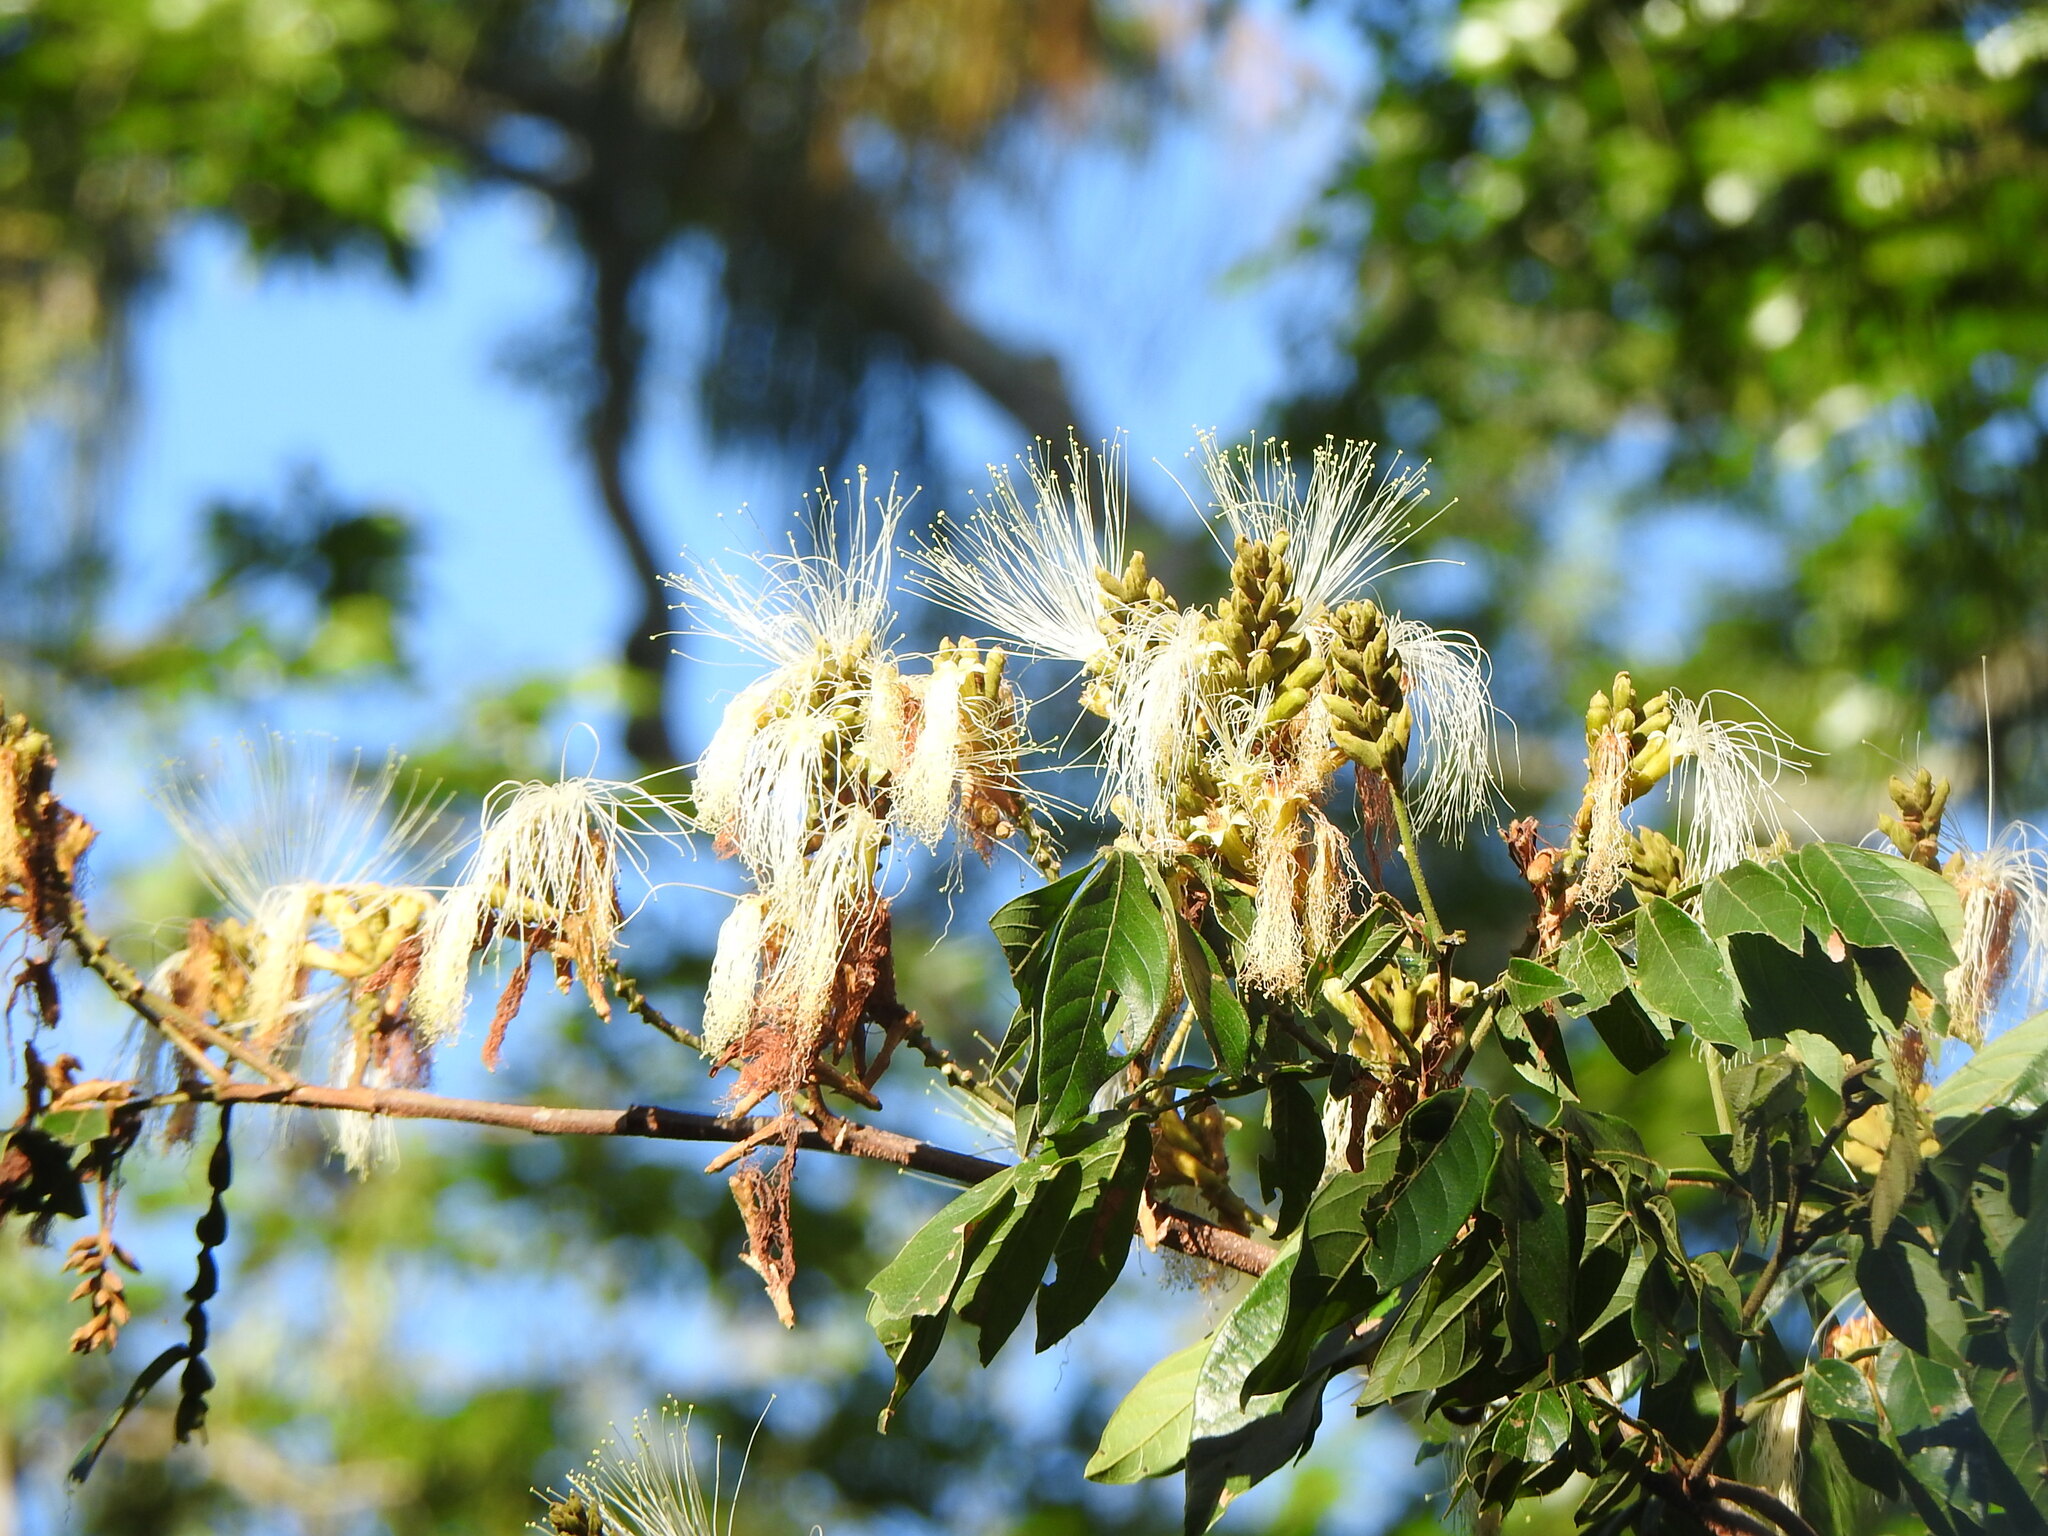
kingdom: Plantae
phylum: Tracheophyta
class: Magnoliopsida
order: Fabales
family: Fabaceae
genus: Inga
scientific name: Inga uraguensis
